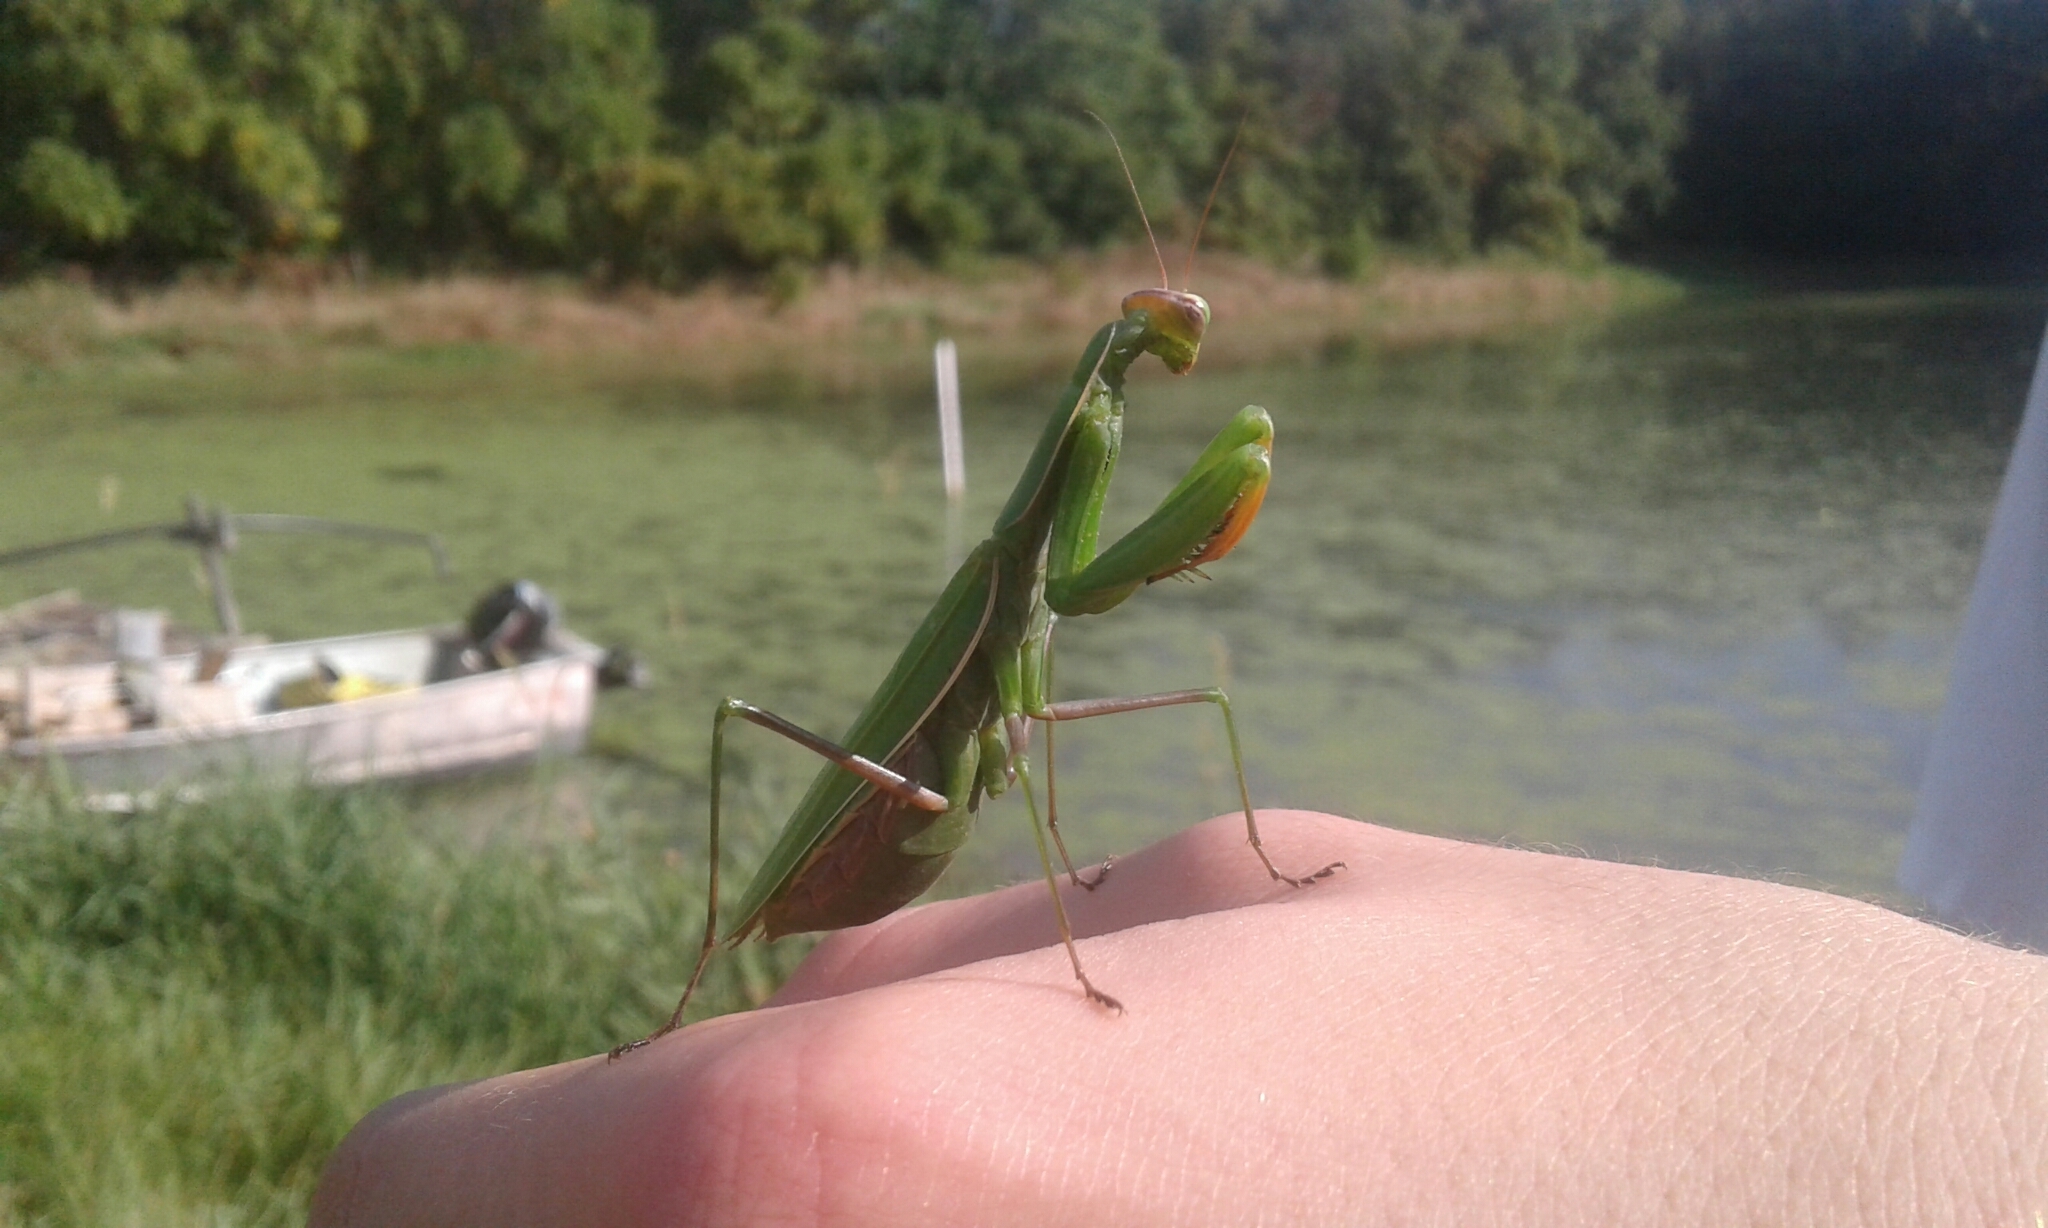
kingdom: Animalia
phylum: Arthropoda
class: Insecta
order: Mantodea
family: Mantidae
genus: Mantis
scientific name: Mantis religiosa
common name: Praying mantis
